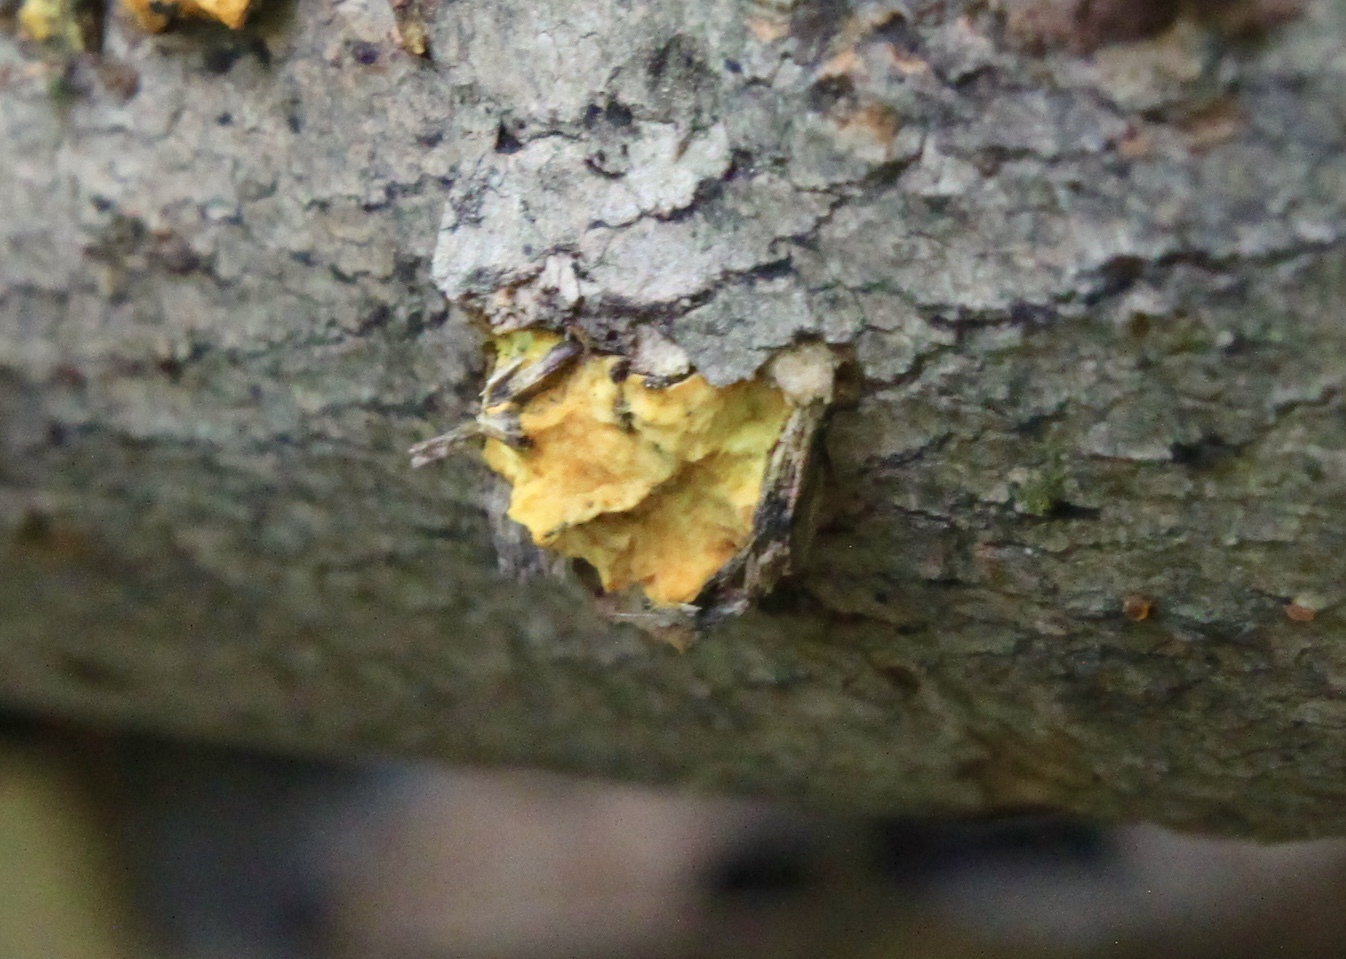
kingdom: Fungi
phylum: Ascomycota
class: Sordariomycetes
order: Xylariales
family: Hypoxylaceae
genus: Thuemenella
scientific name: Thuemenella cubispora
